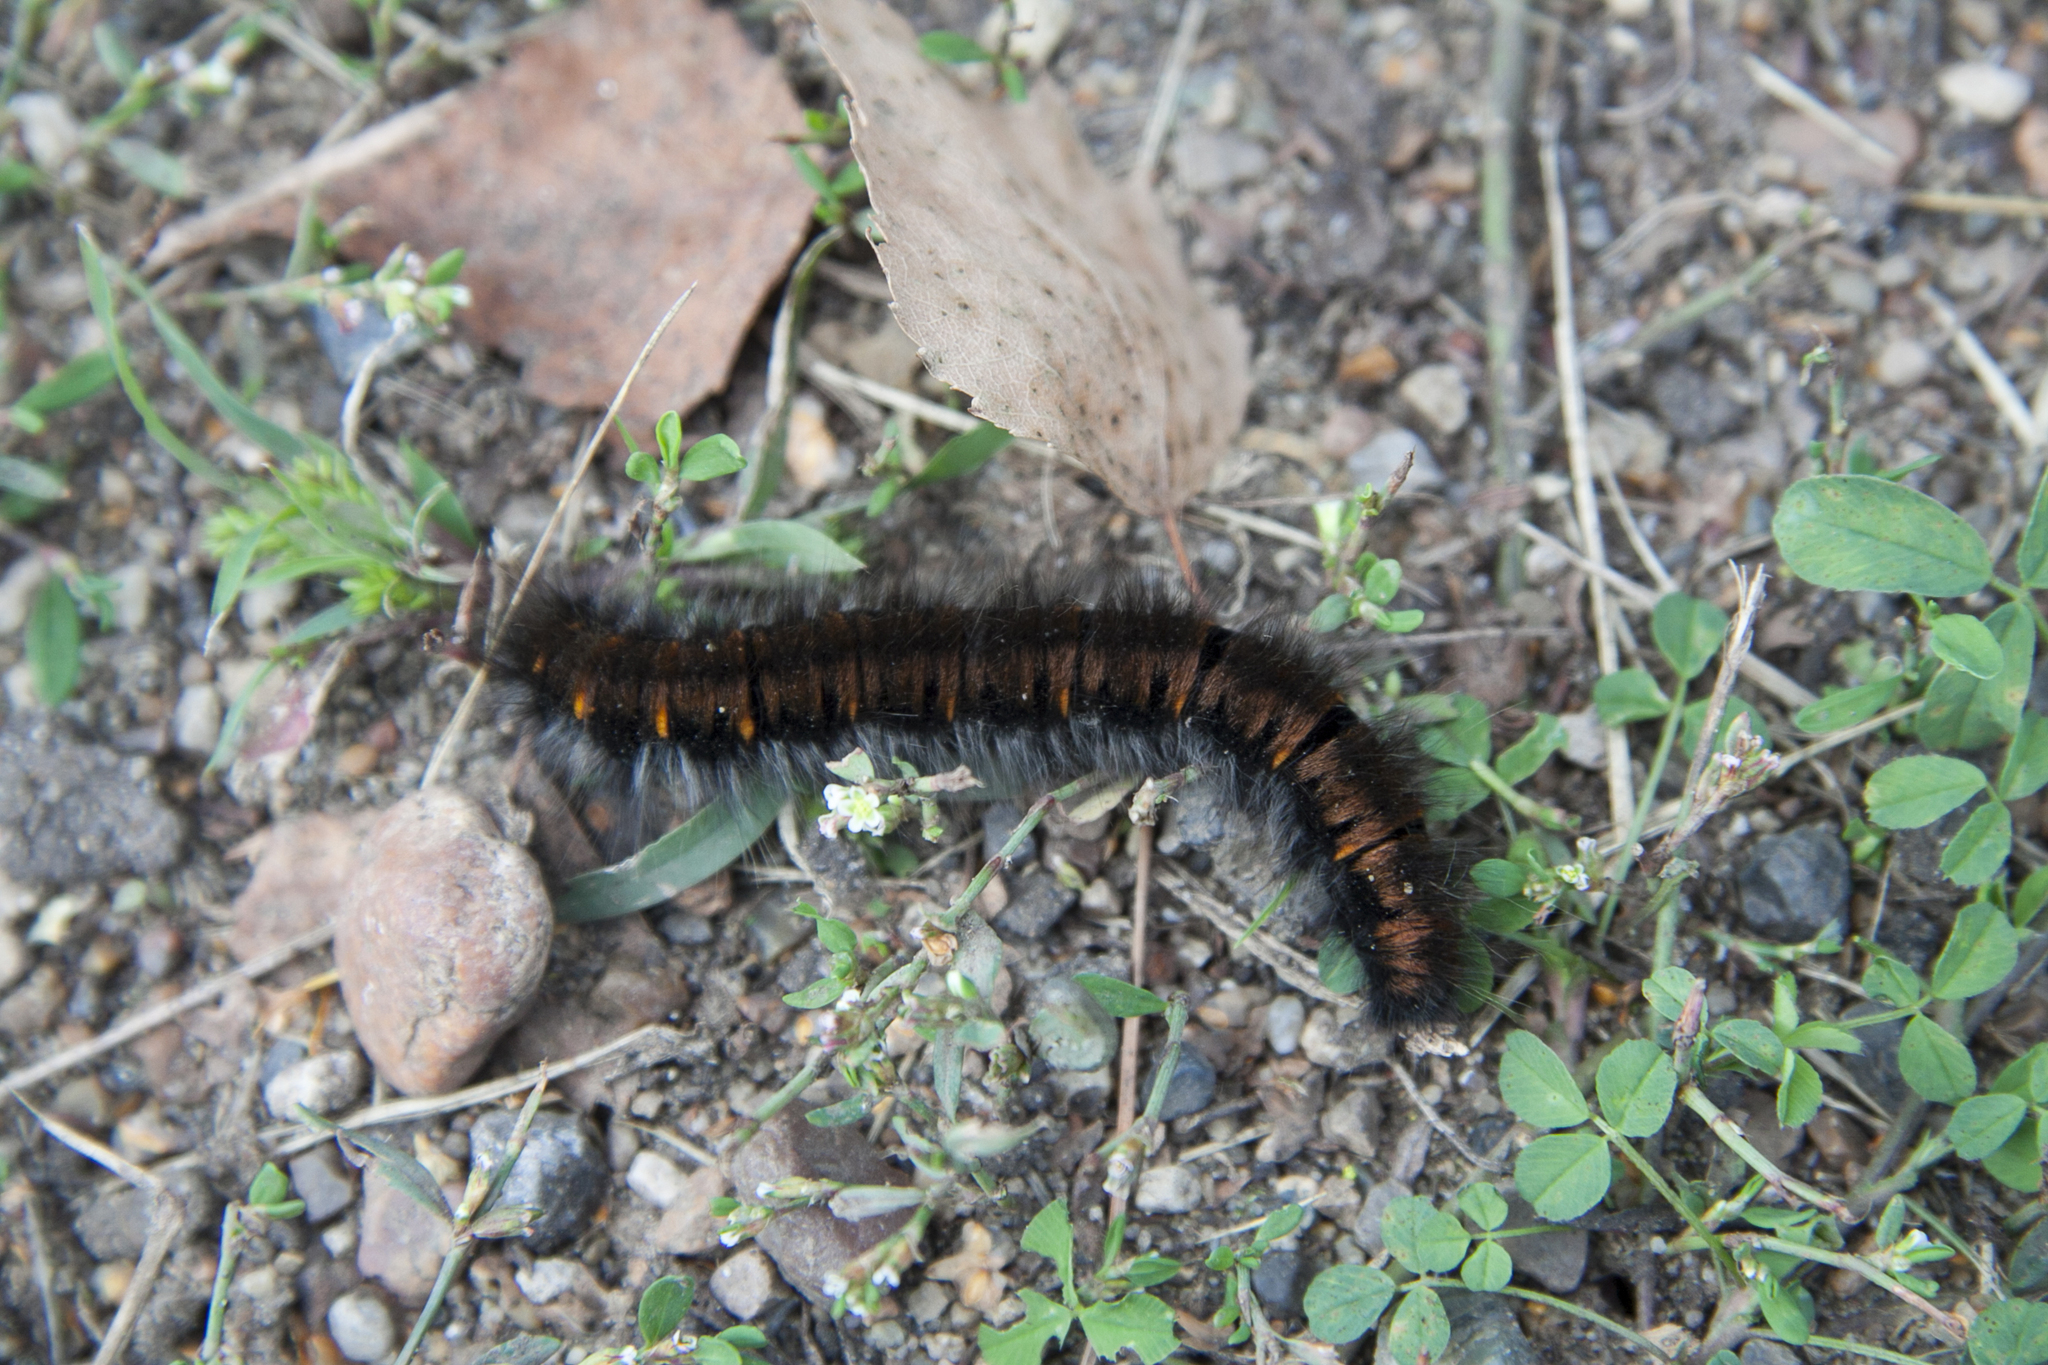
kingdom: Animalia
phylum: Arthropoda
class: Insecta
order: Lepidoptera
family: Lasiocampidae
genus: Macrothylacia
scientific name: Macrothylacia rubi
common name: Fox moth
